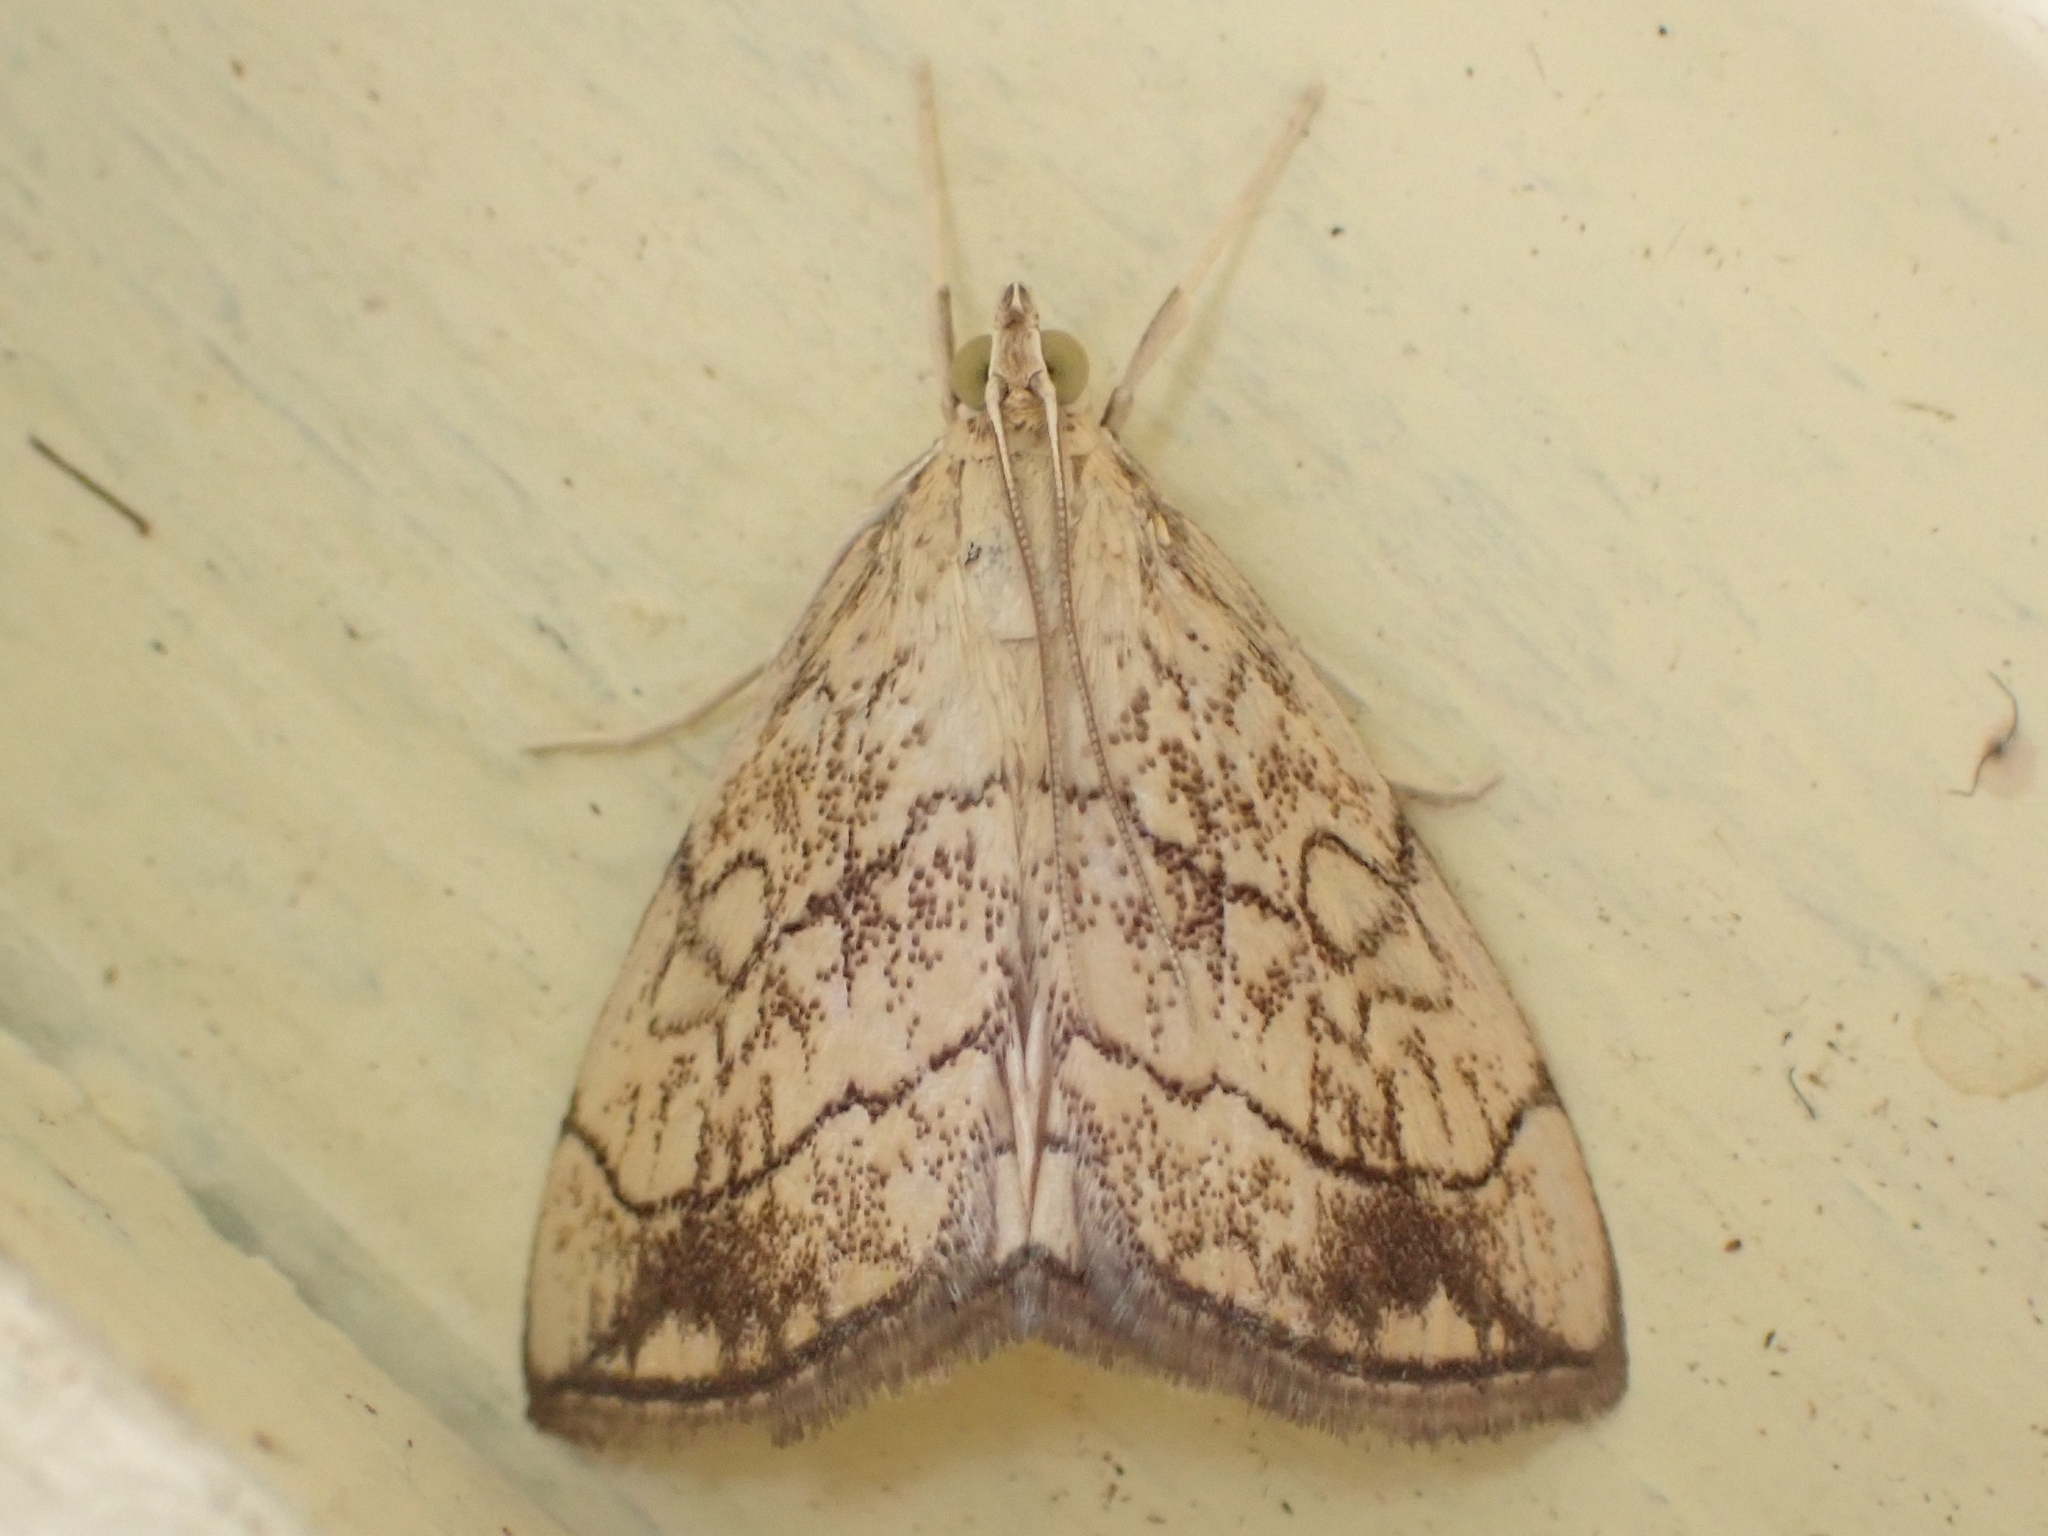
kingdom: Animalia
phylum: Arthropoda
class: Insecta
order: Lepidoptera
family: Crambidae
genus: Evergestis
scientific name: Evergestis pallidata
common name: Chequered pearl
